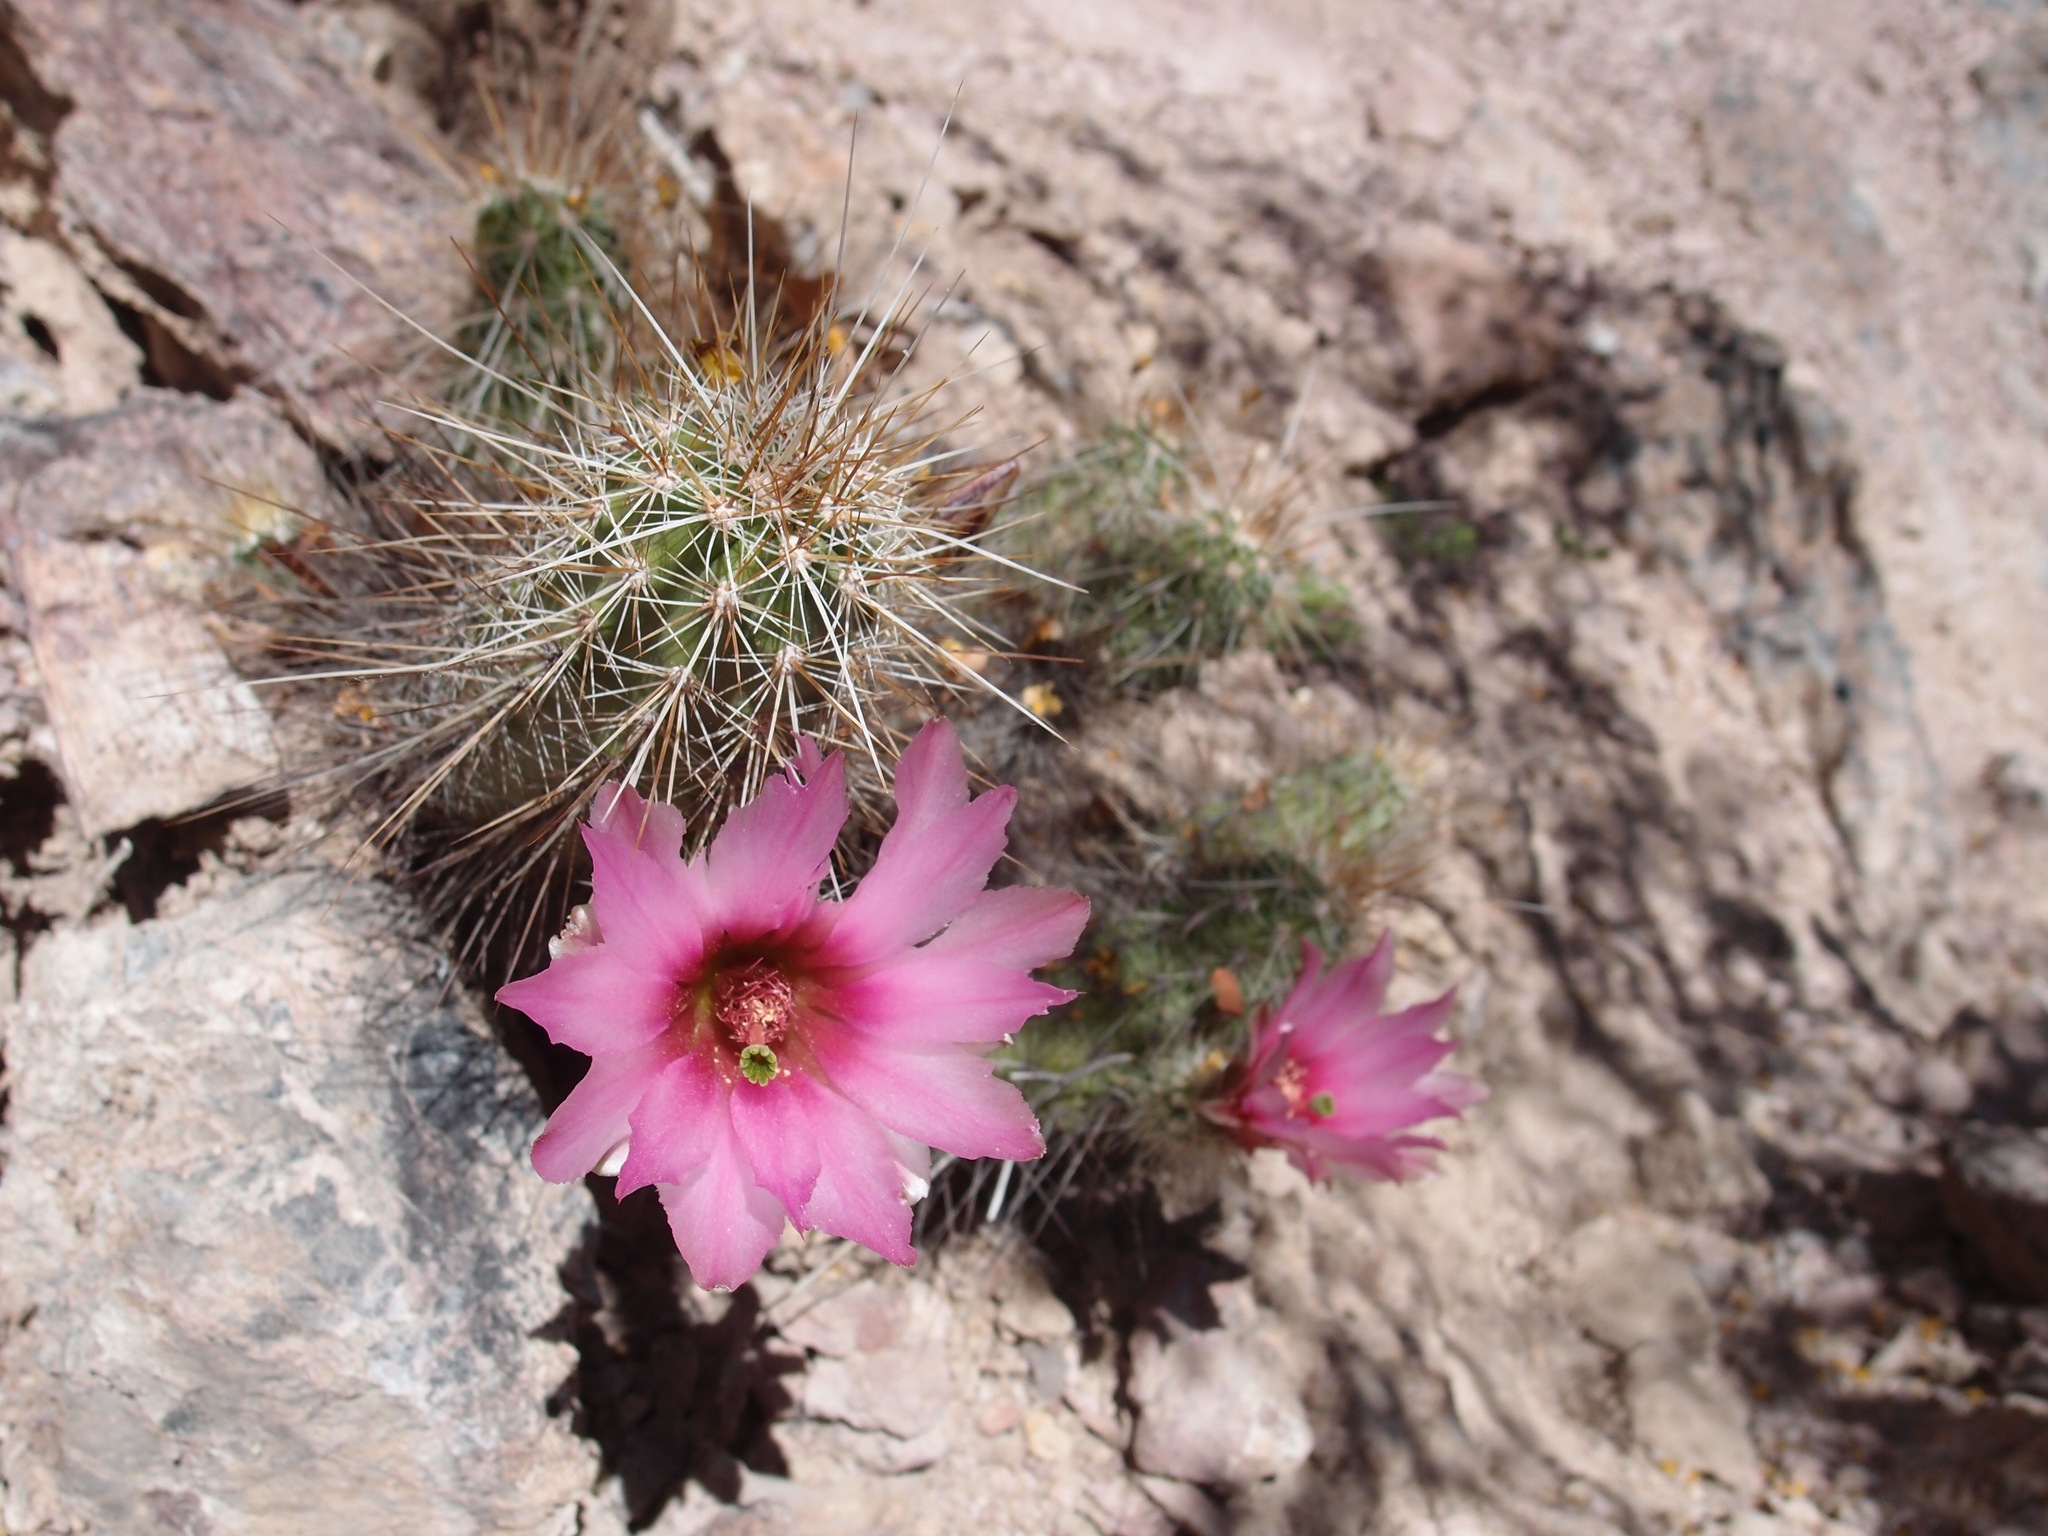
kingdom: Plantae
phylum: Tracheophyta
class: Magnoliopsida
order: Caryophyllales
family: Cactaceae
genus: Echinocereus
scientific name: Echinocereus llanurensis
